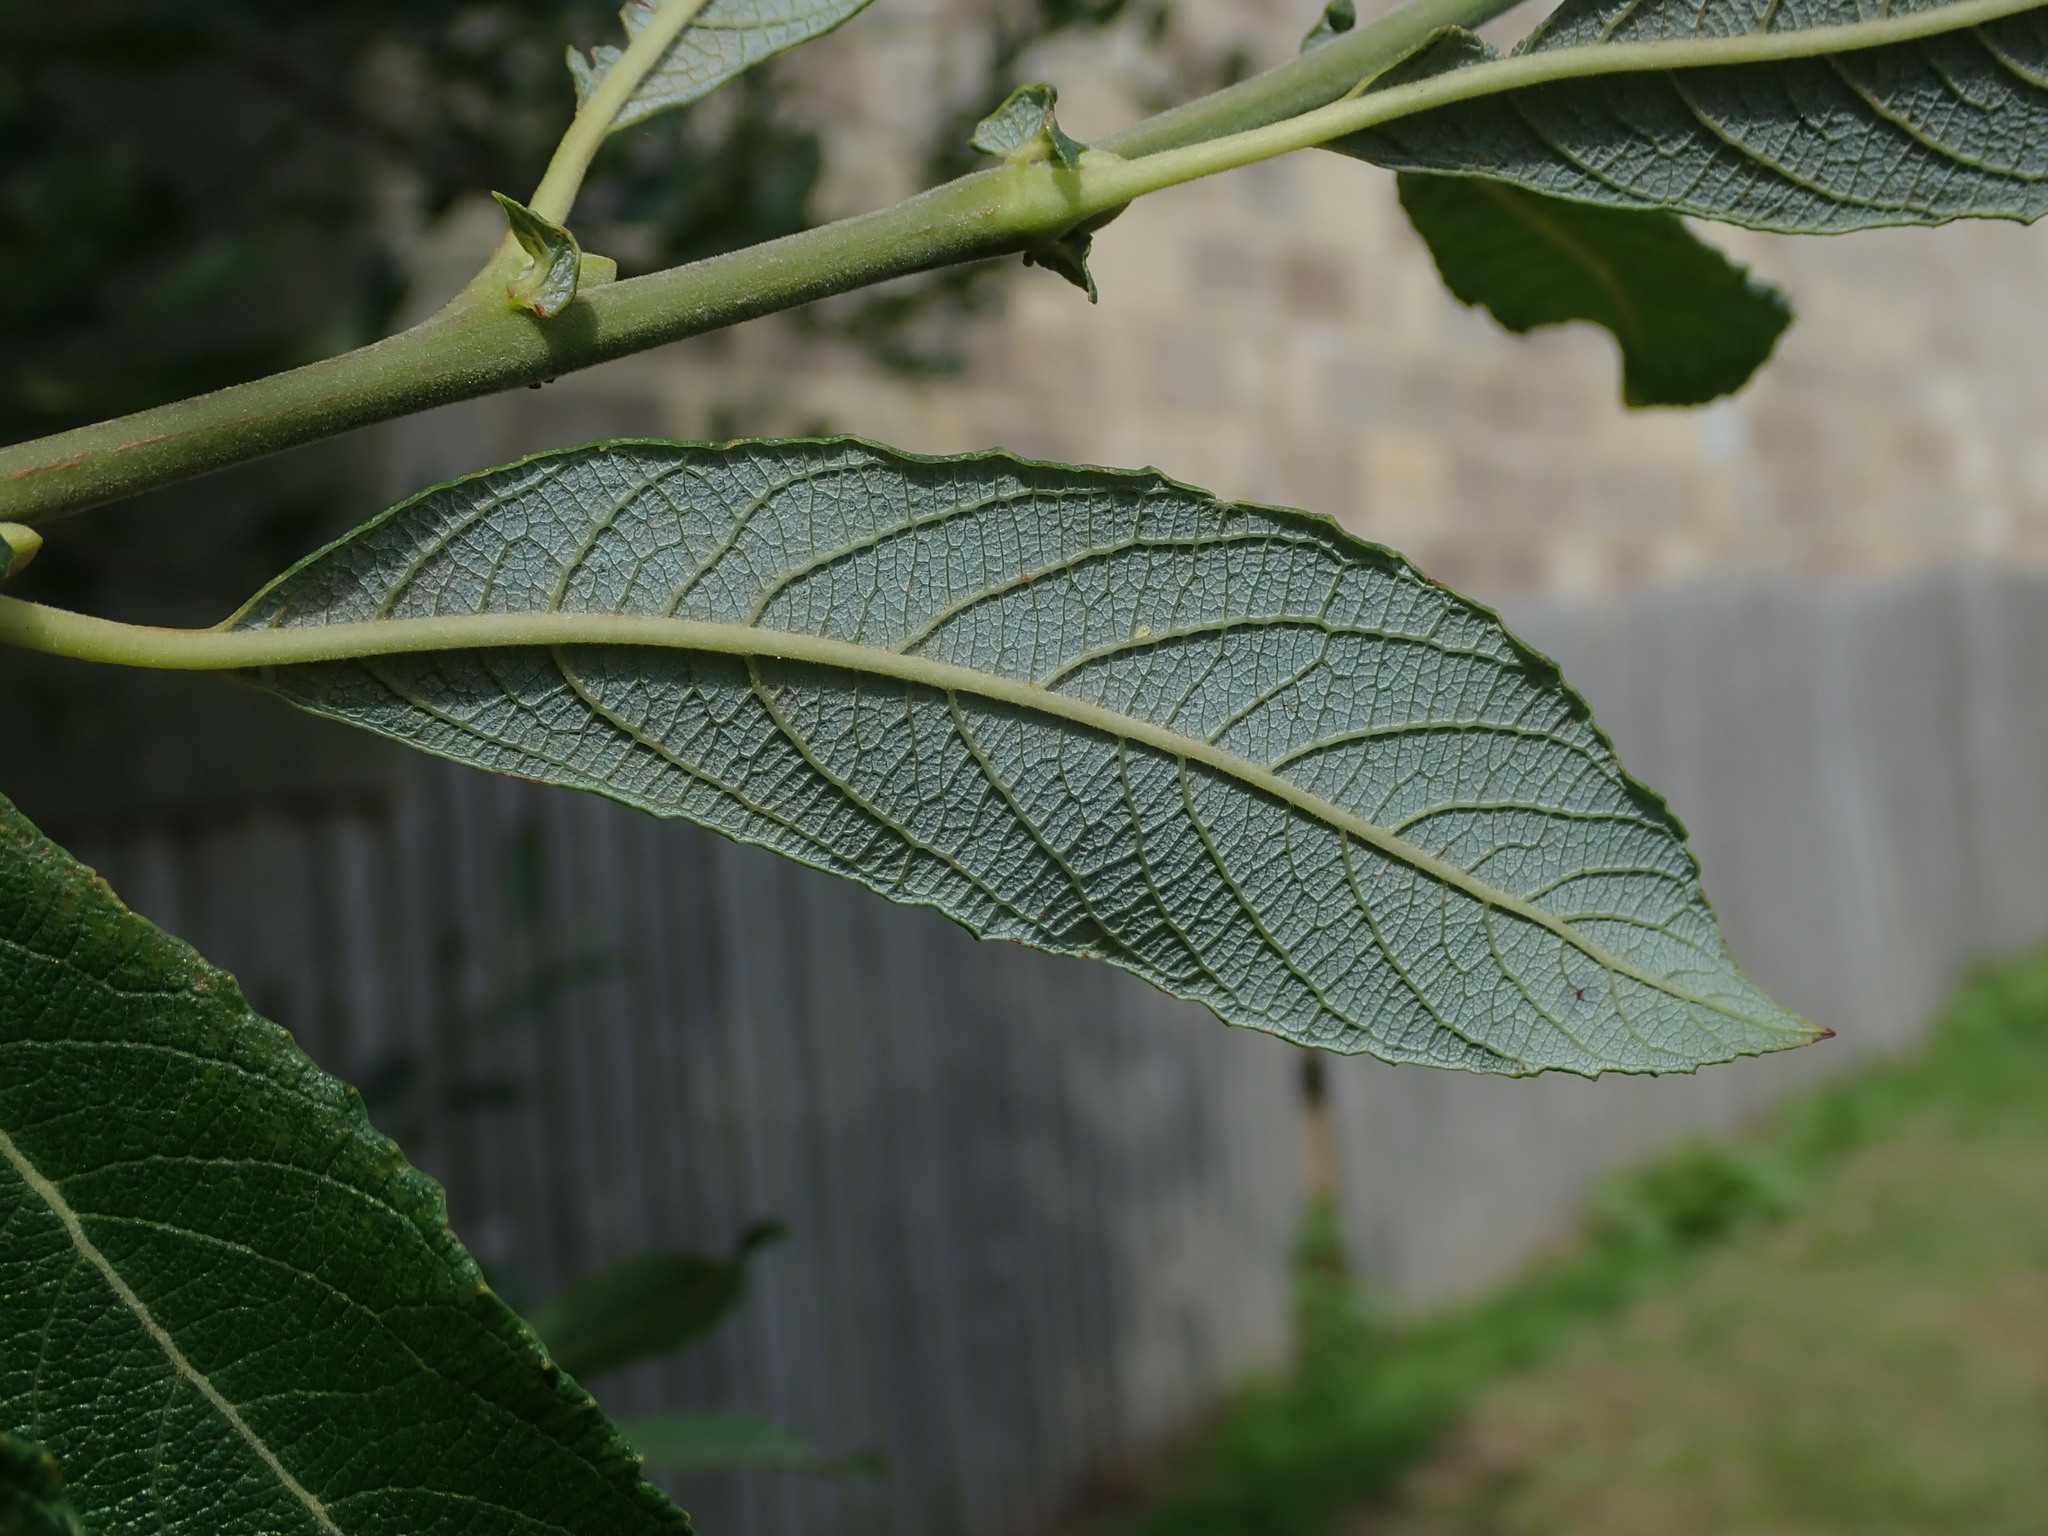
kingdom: Plantae
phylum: Tracheophyta
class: Magnoliopsida
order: Malpighiales
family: Salicaceae
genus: Salix
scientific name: Salix atrocinerea
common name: Rusty willow
